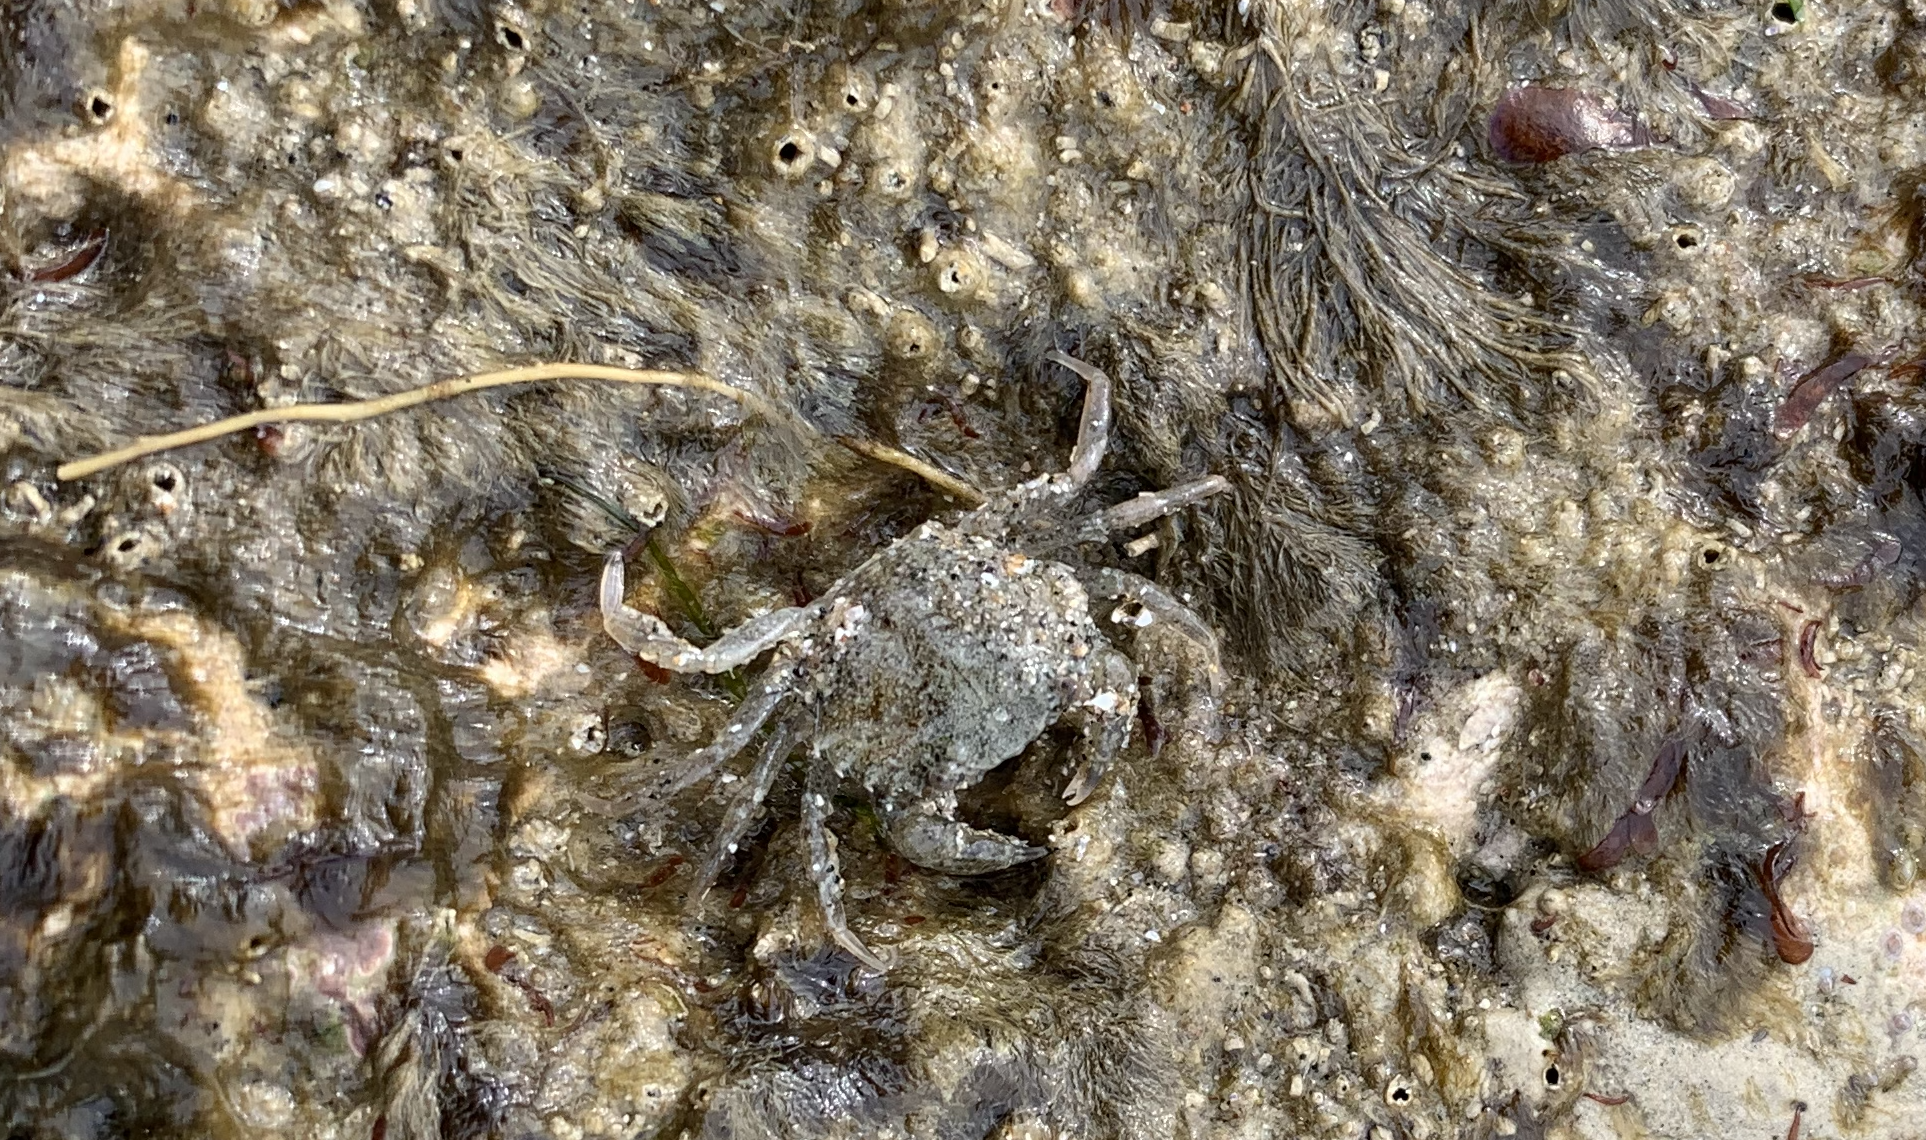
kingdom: Animalia
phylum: Arthropoda
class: Malacostraca
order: Decapoda
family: Carcinidae
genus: Carcinus
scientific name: Carcinus maenas
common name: European green crab
